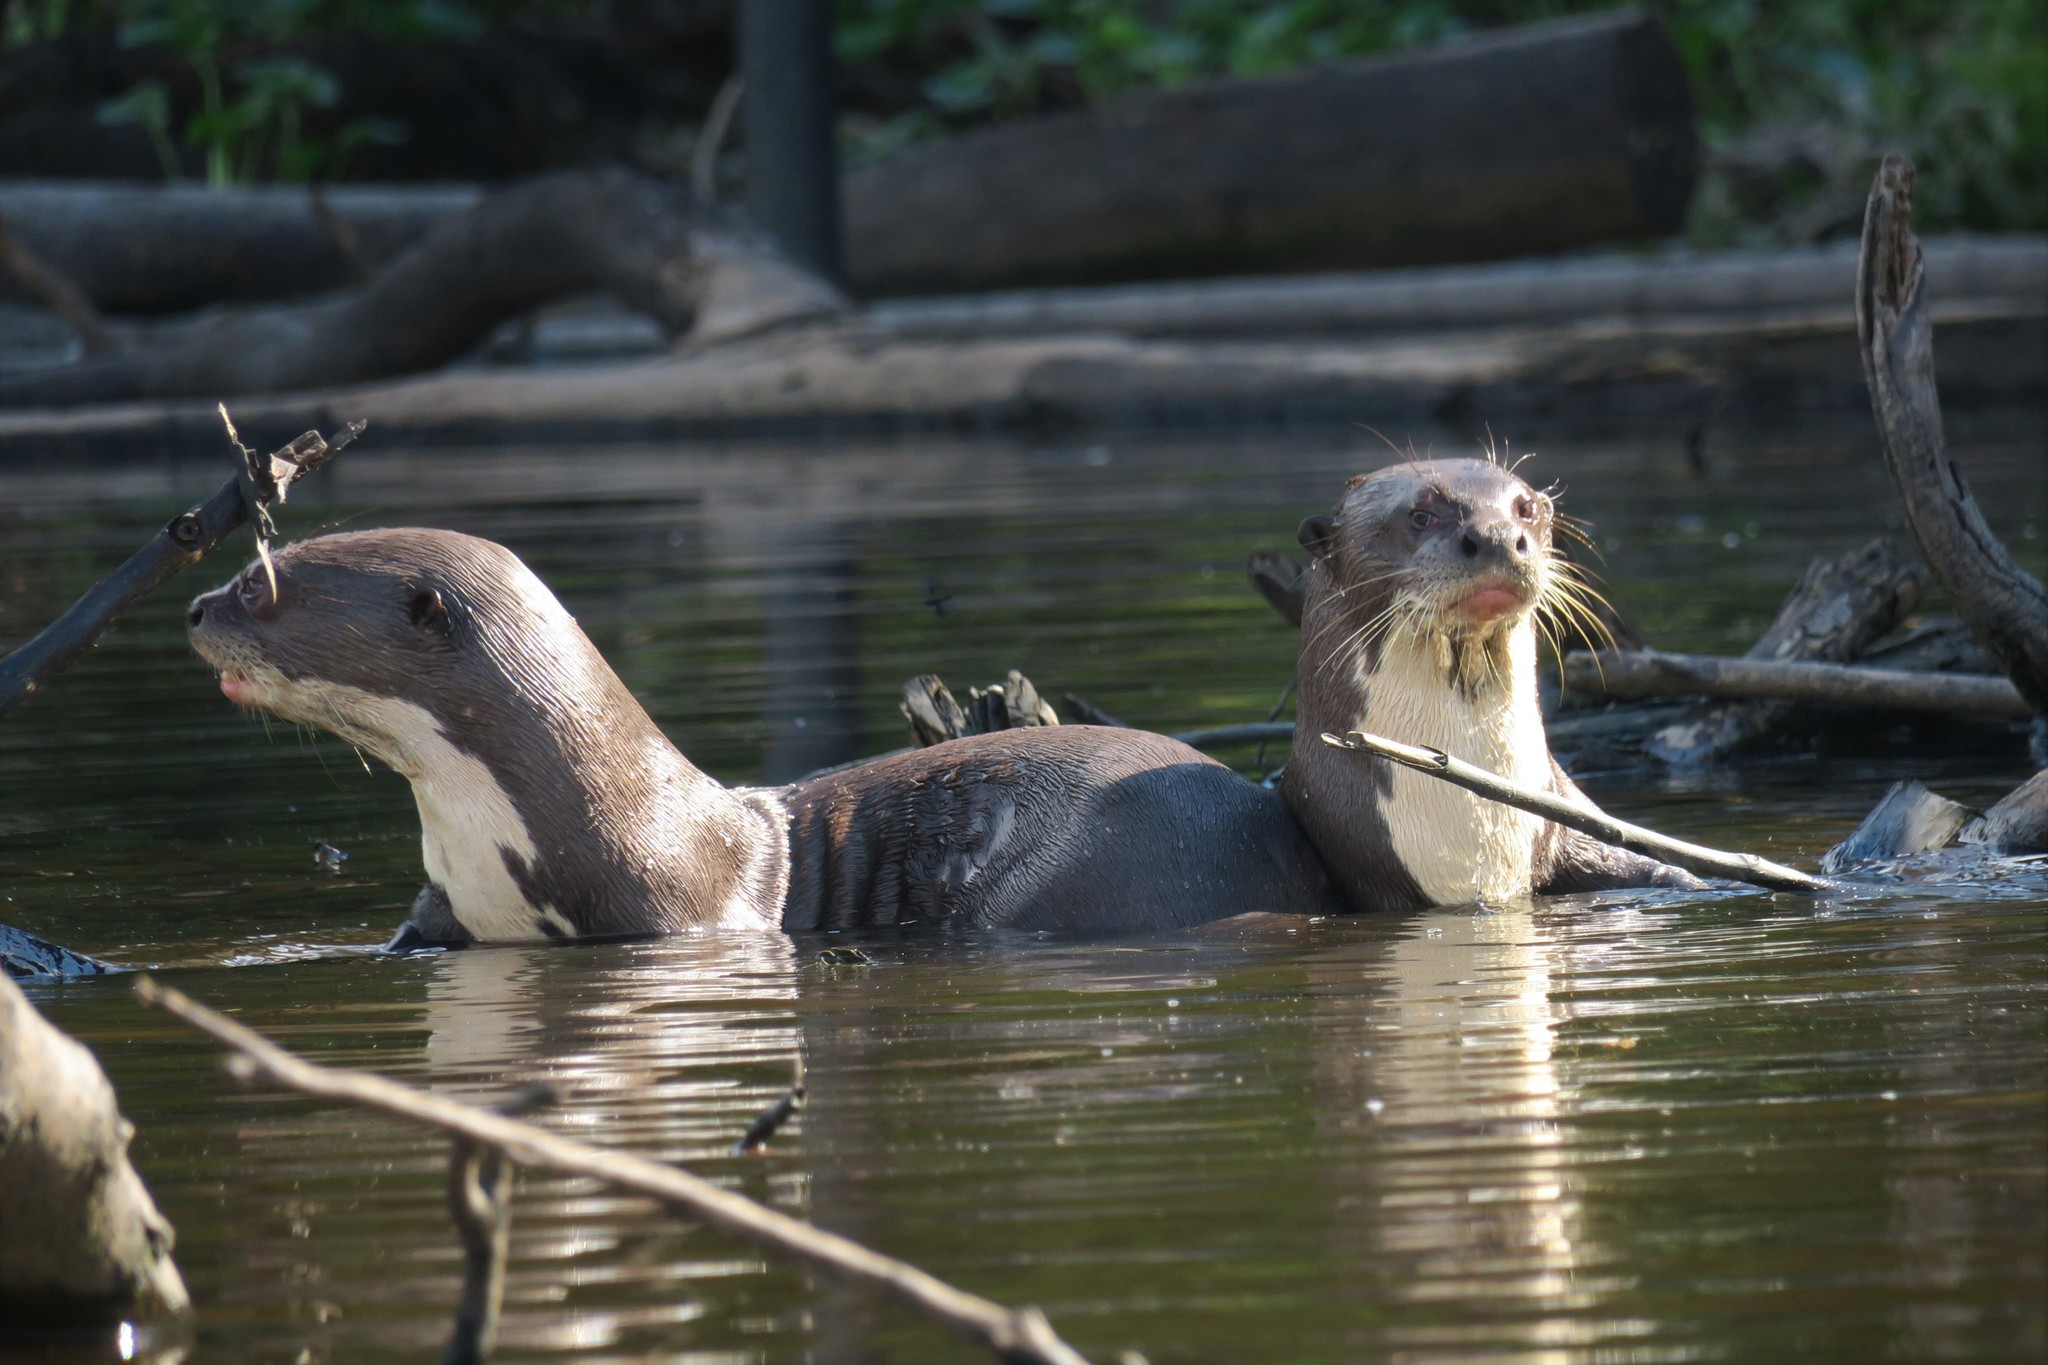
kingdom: Animalia
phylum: Chordata
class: Mammalia
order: Carnivora
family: Mustelidae
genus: Pteronura
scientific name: Pteronura brasiliensis
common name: Giant otter
